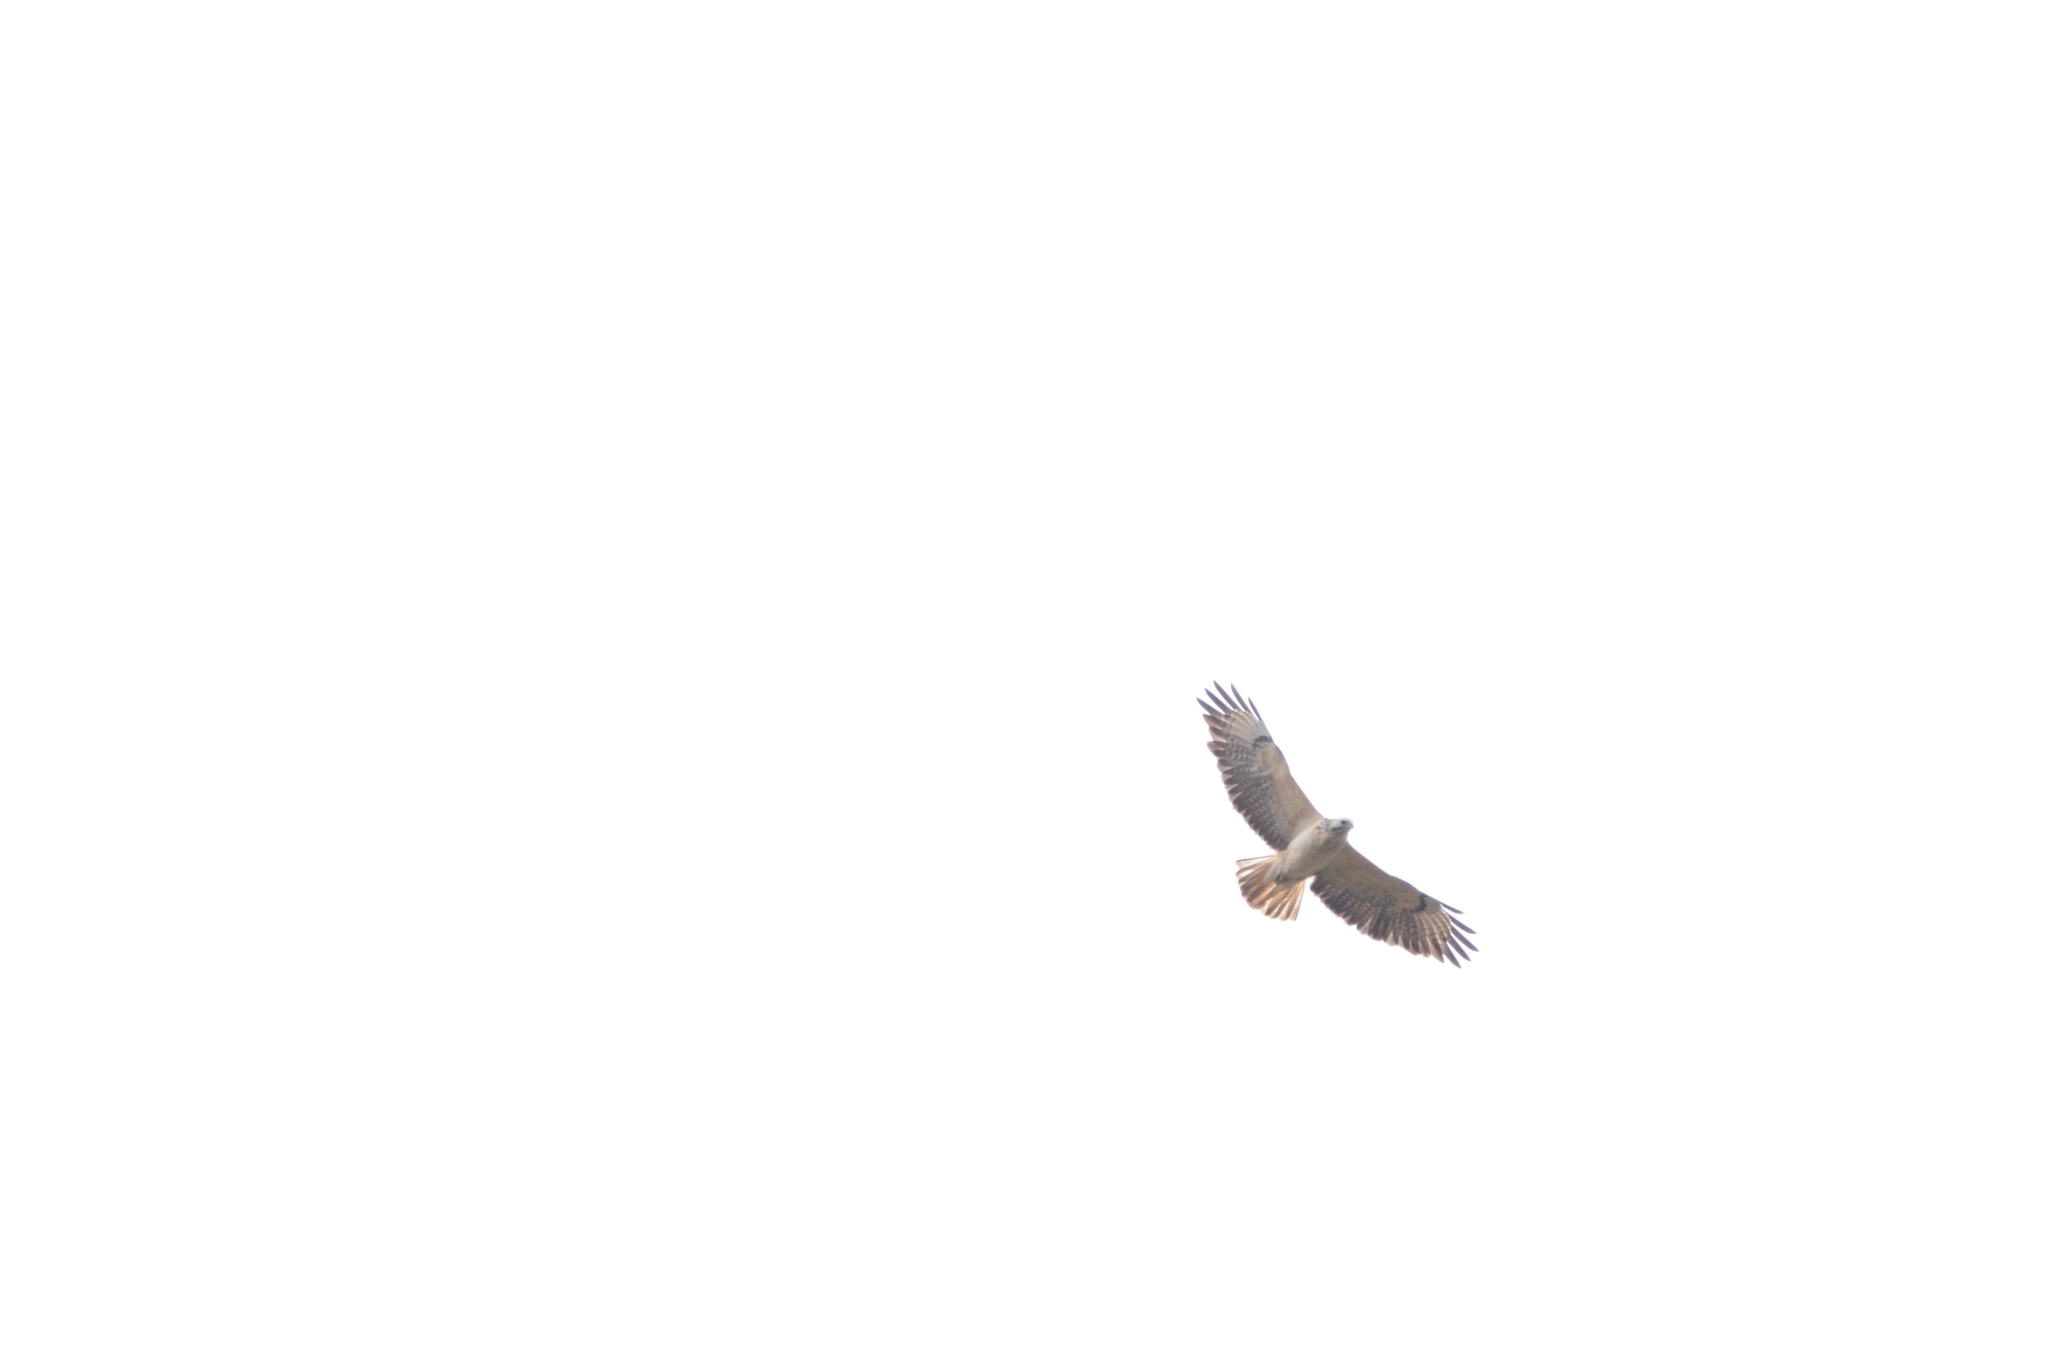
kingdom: Animalia
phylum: Chordata
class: Aves
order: Accipitriformes
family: Accipitridae
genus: Buteo
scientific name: Buteo buteo
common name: Common buzzard
